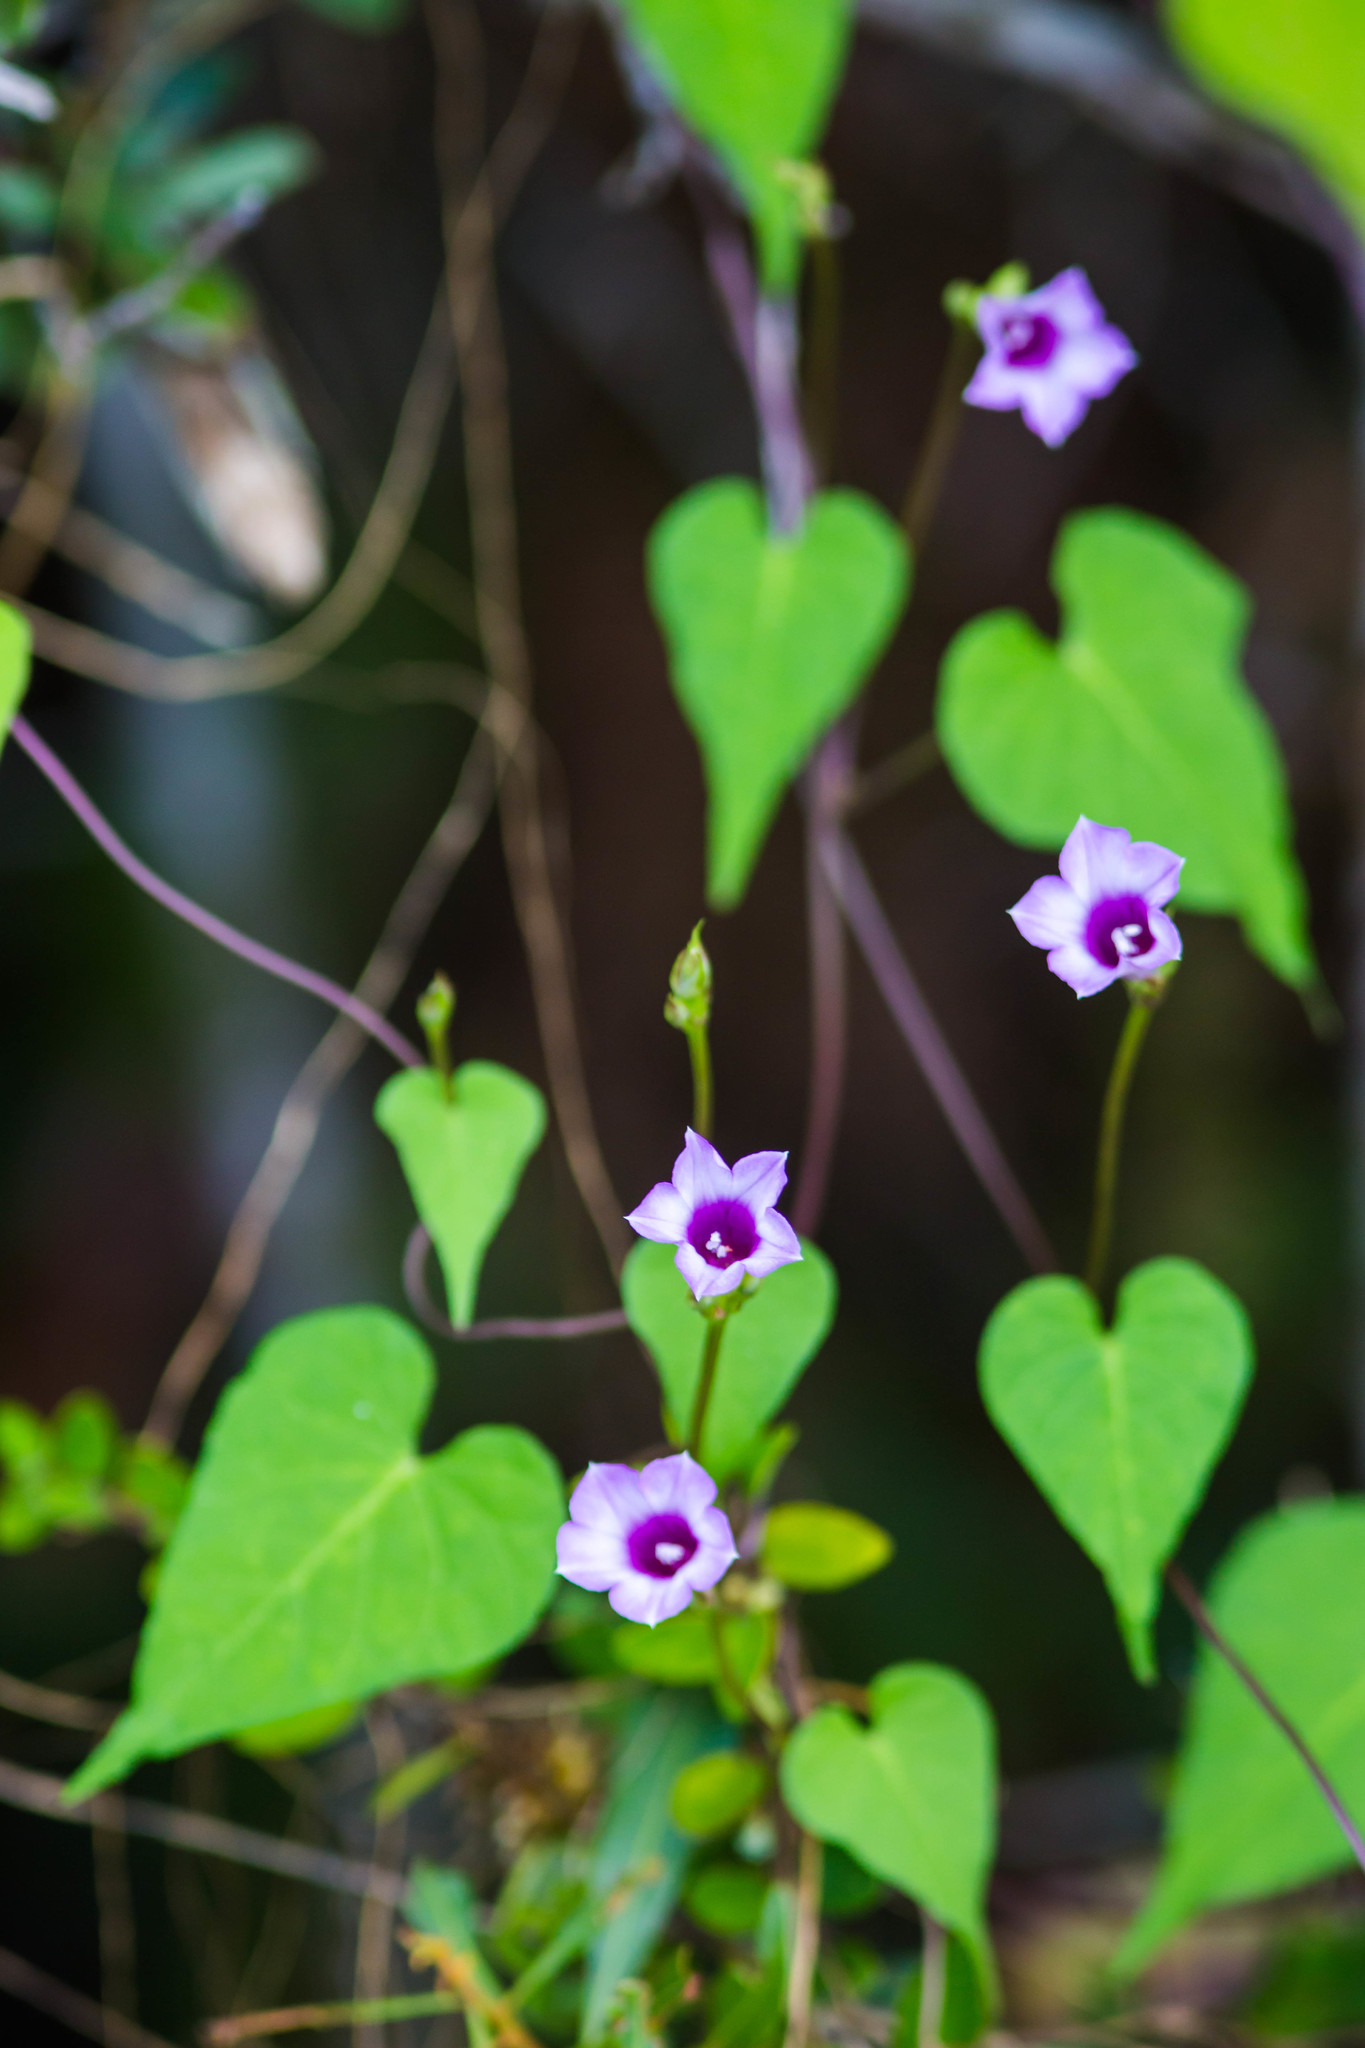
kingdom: Plantae
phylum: Tracheophyta
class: Magnoliopsida
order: Solanales
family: Convolvulaceae
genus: Ipomoea
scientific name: Ipomoea cordatotriloba
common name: Cotton morning glory
